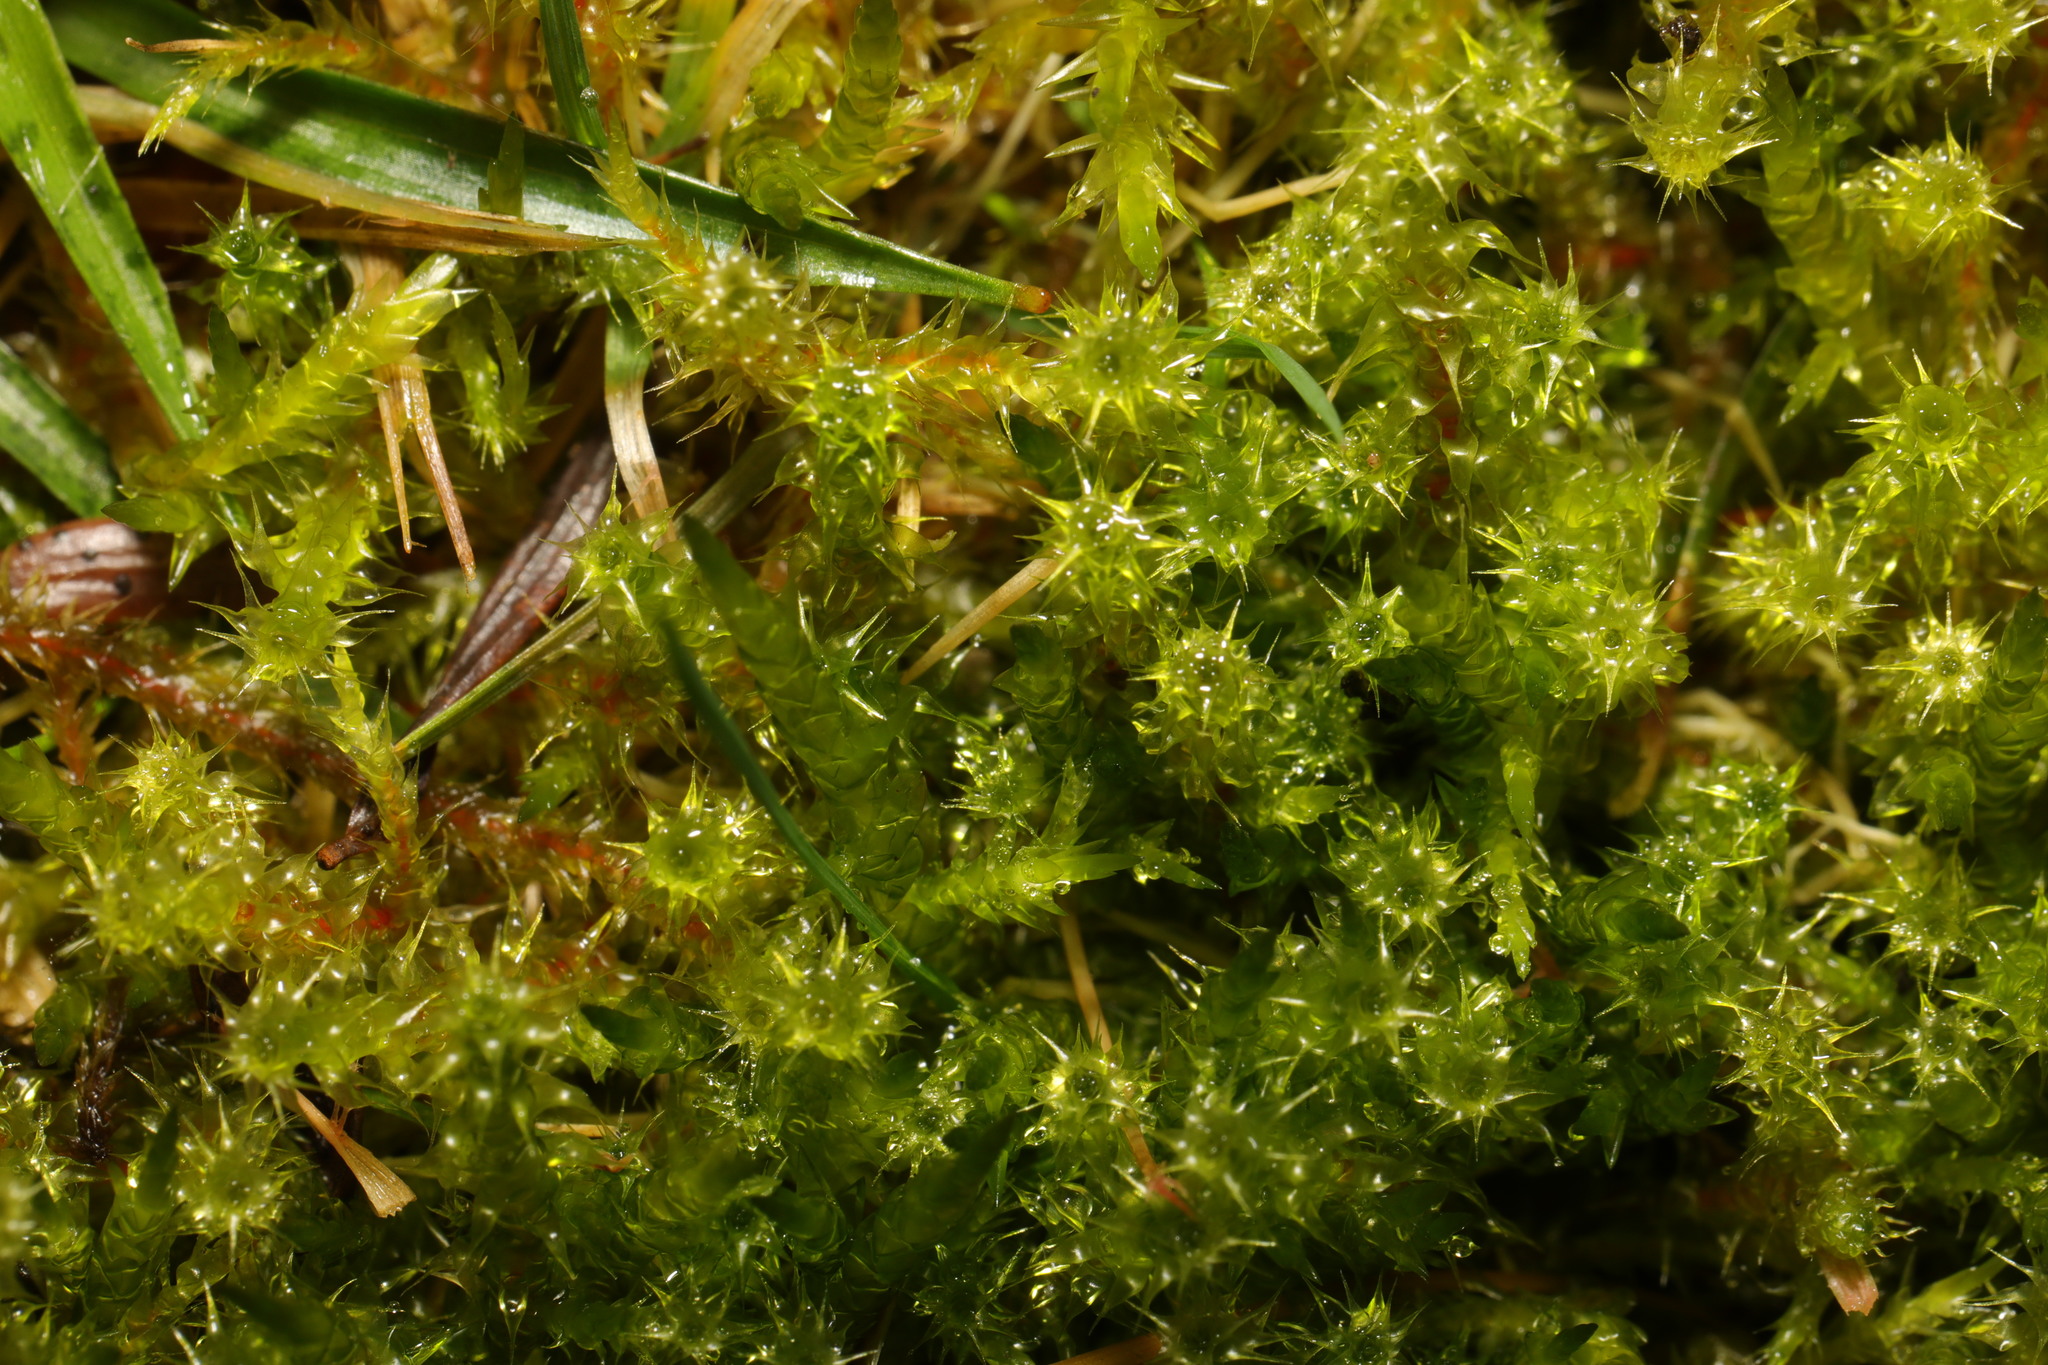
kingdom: Plantae
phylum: Bryophyta
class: Bryopsida
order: Hypnales
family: Hylocomiaceae
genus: Rhytidiadelphus
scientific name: Rhytidiadelphus squarrosus
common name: Springy turf-moss
